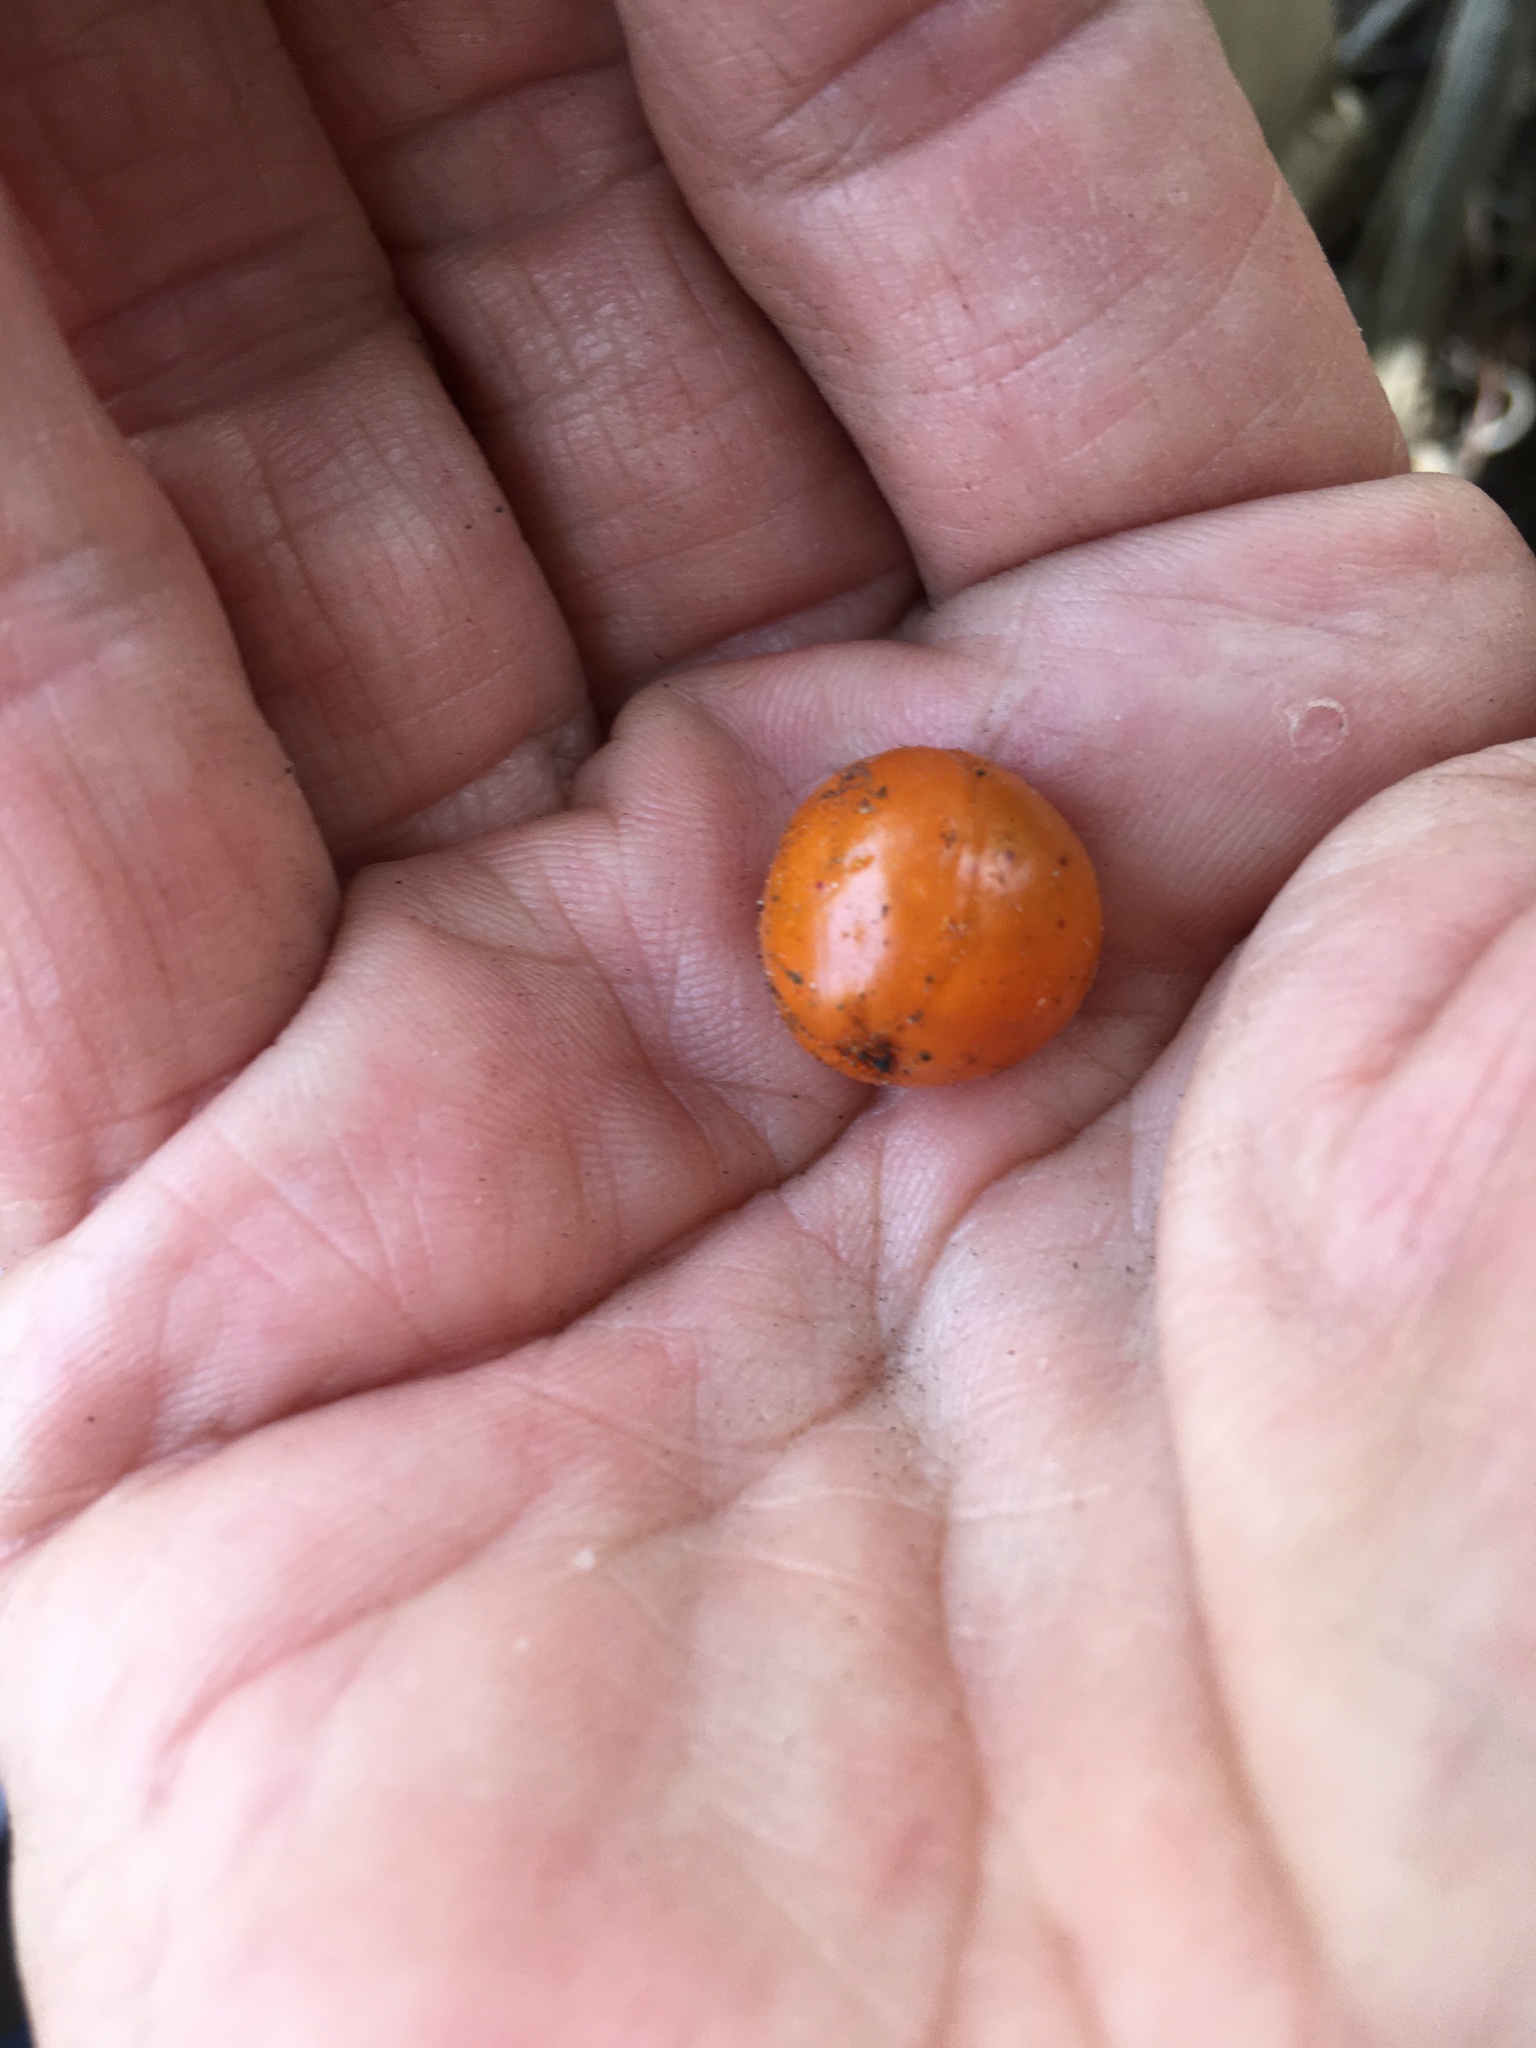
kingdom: Plantae
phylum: Tracheophyta
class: Liliopsida
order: Asparagales
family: Asparagaceae
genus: Dracaena
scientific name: Dracaena draco
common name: Canary island dragon tree
